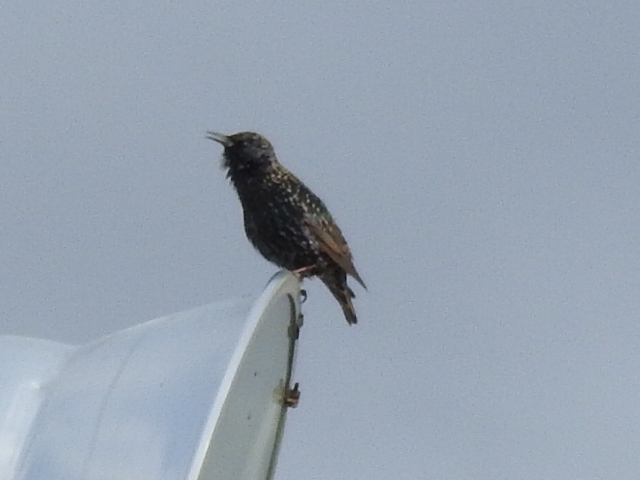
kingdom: Animalia
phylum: Chordata
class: Aves
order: Passeriformes
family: Sturnidae
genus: Sturnus
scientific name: Sturnus vulgaris
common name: Common starling
